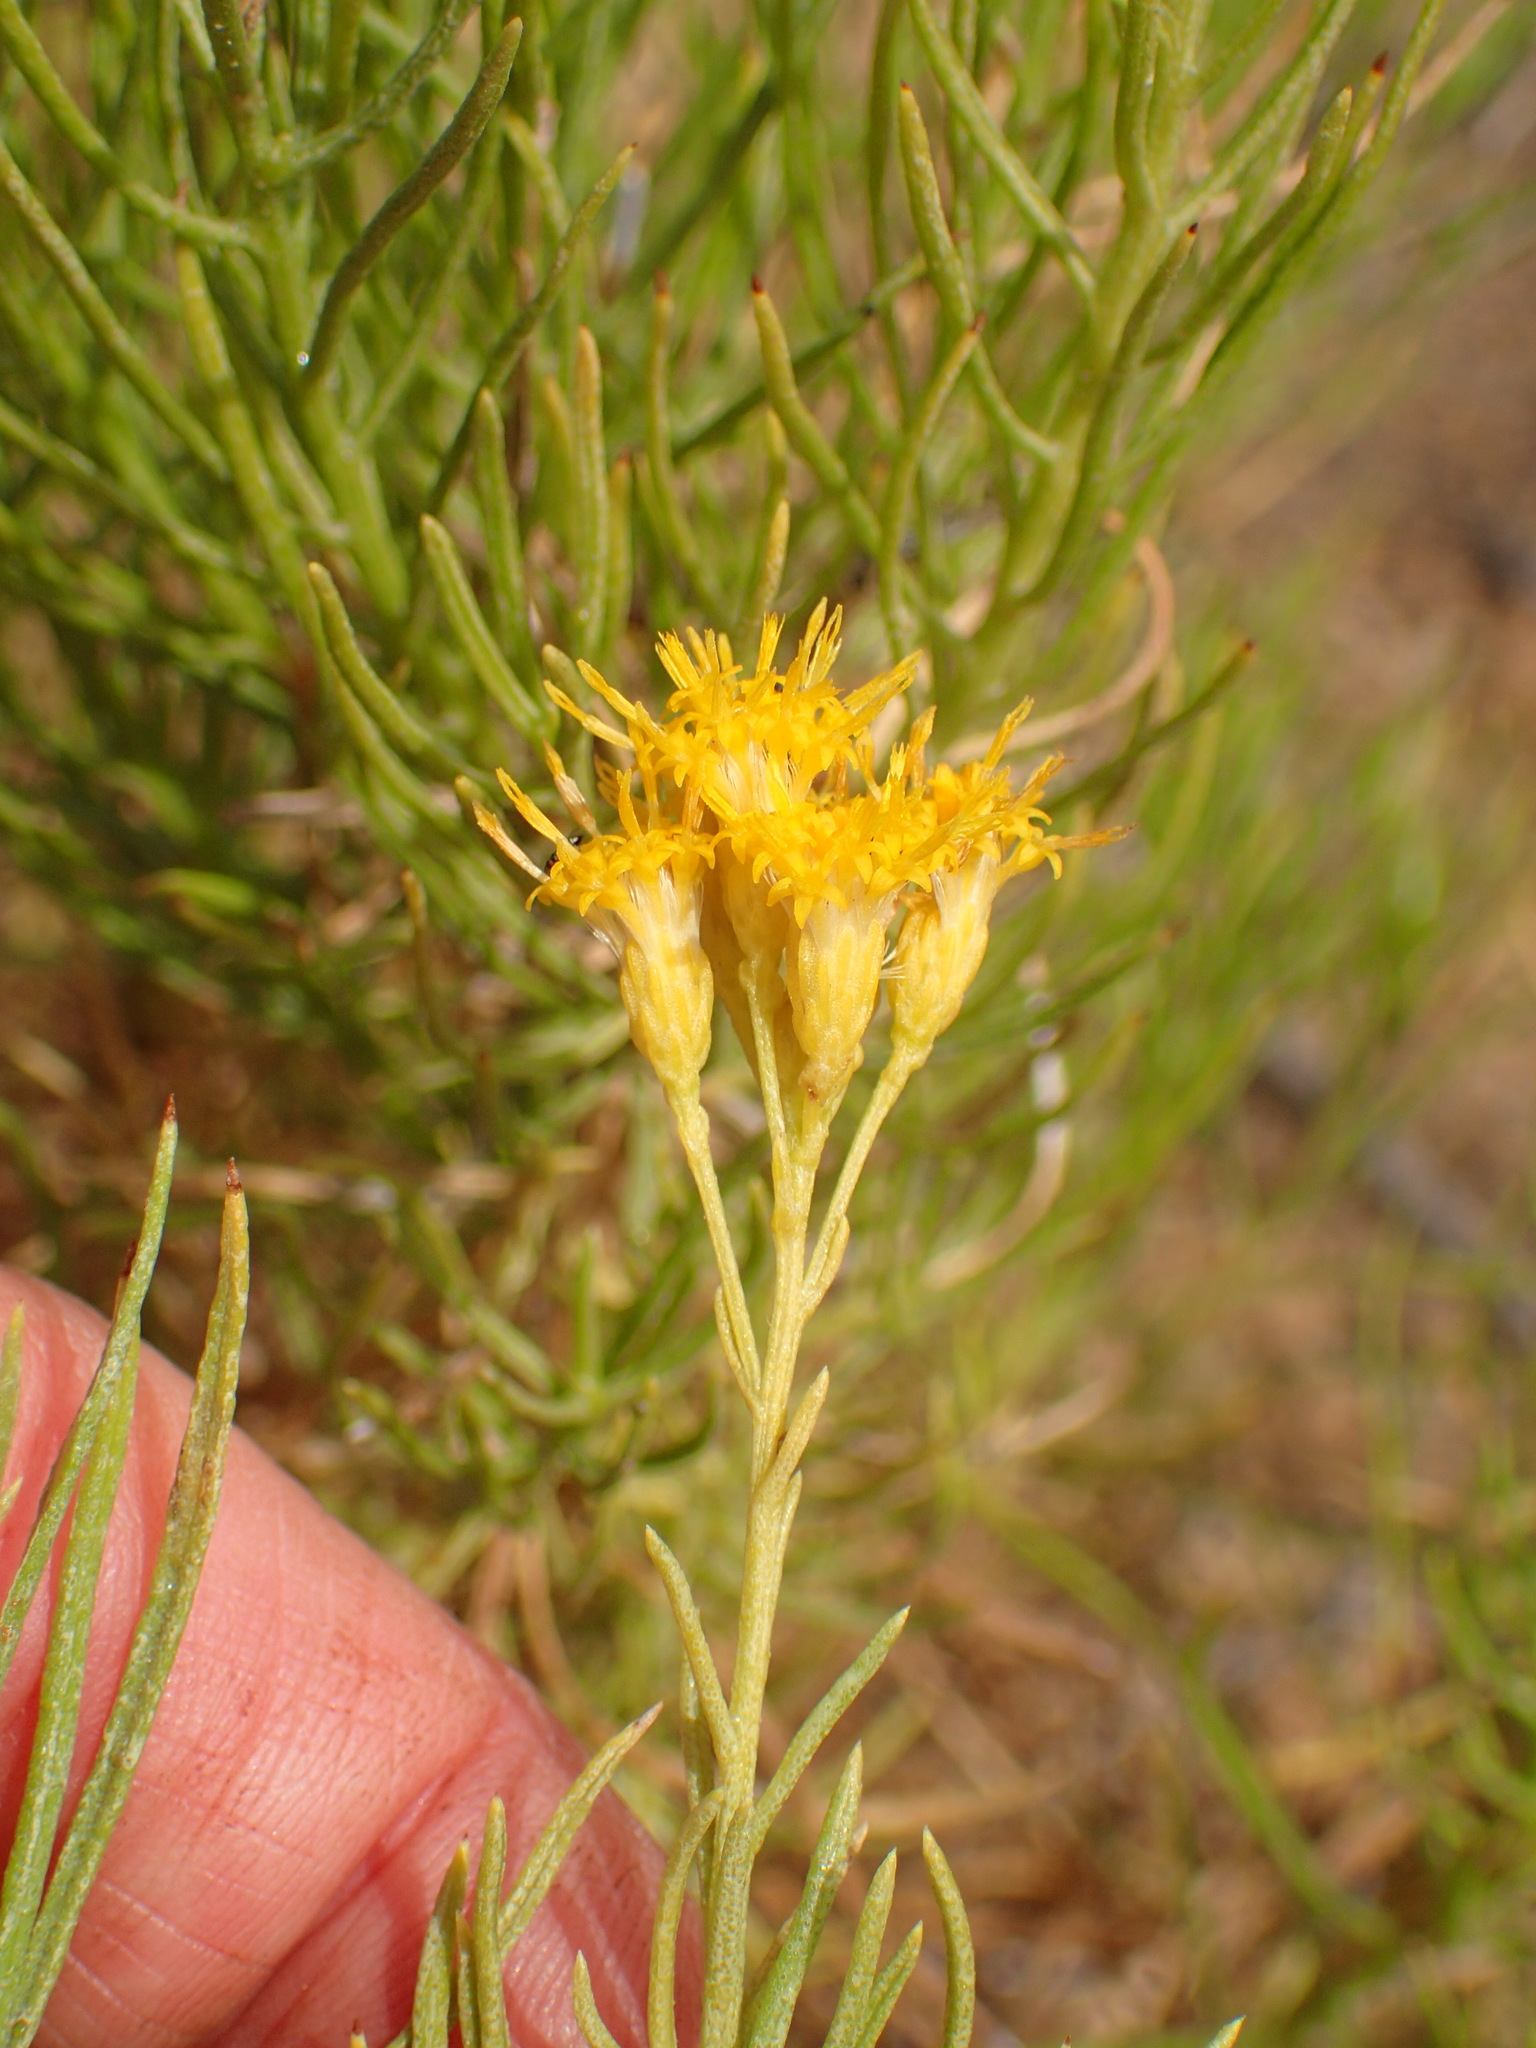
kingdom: Plantae
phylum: Tracheophyta
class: Magnoliopsida
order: Asterales
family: Asteraceae
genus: Ericameria
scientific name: Ericameria arborescens
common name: Goldenfleece
